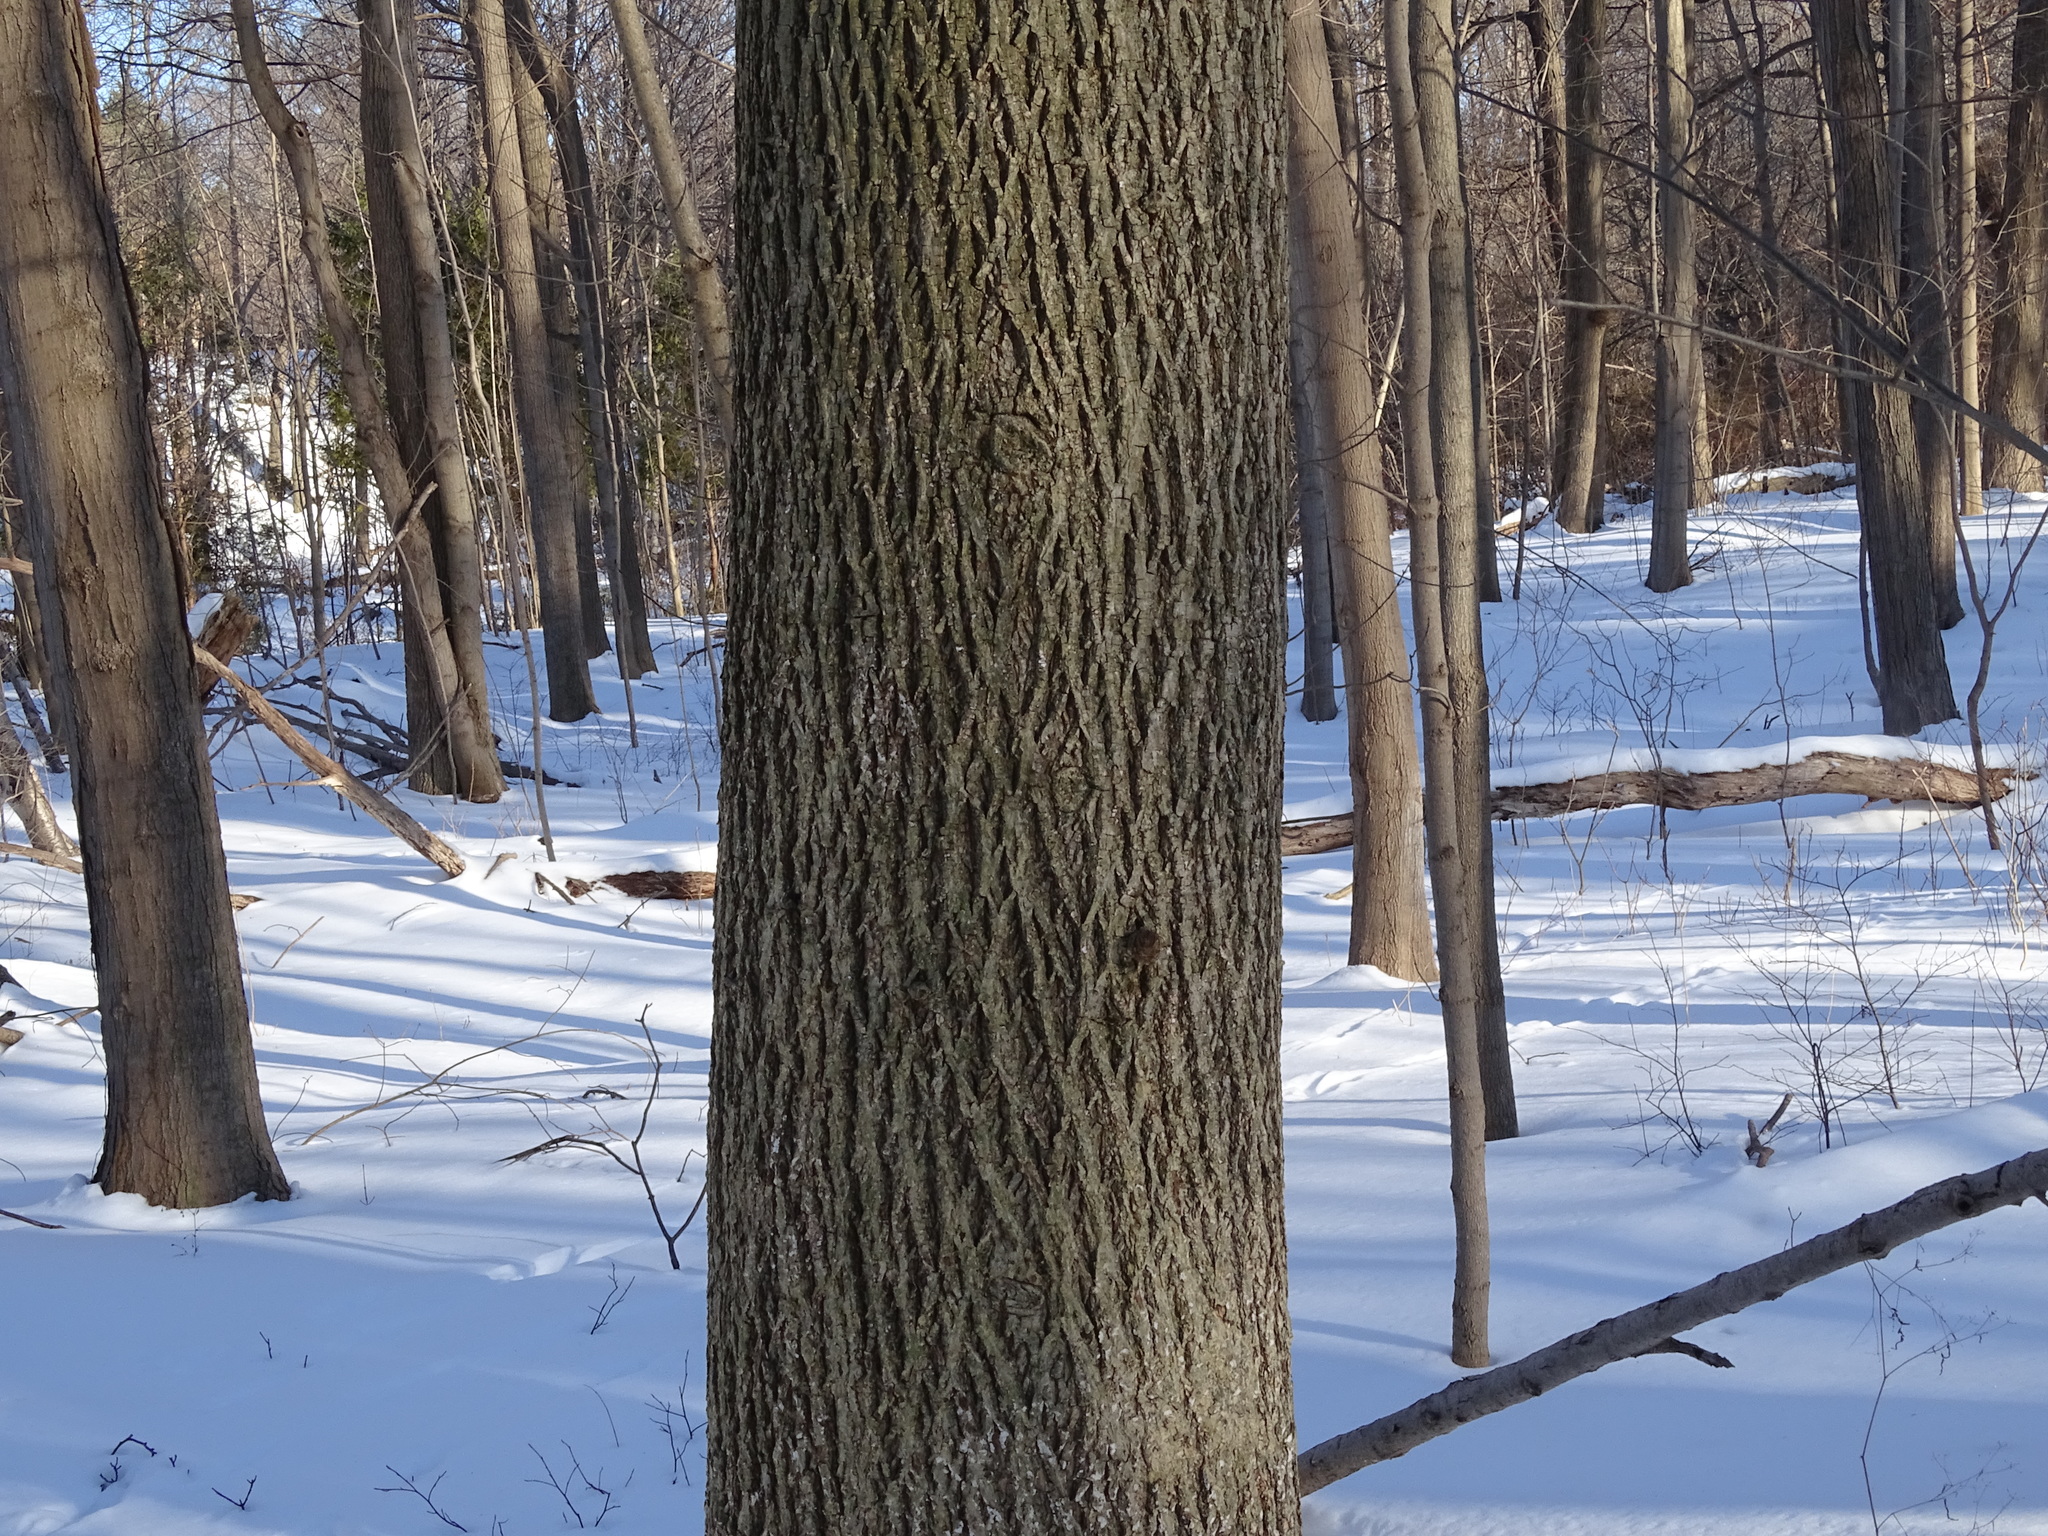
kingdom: Plantae
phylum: Tracheophyta
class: Magnoliopsida
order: Fagales
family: Juglandaceae
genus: Carya
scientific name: Carya cordiformis
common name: Bitternut hickory
